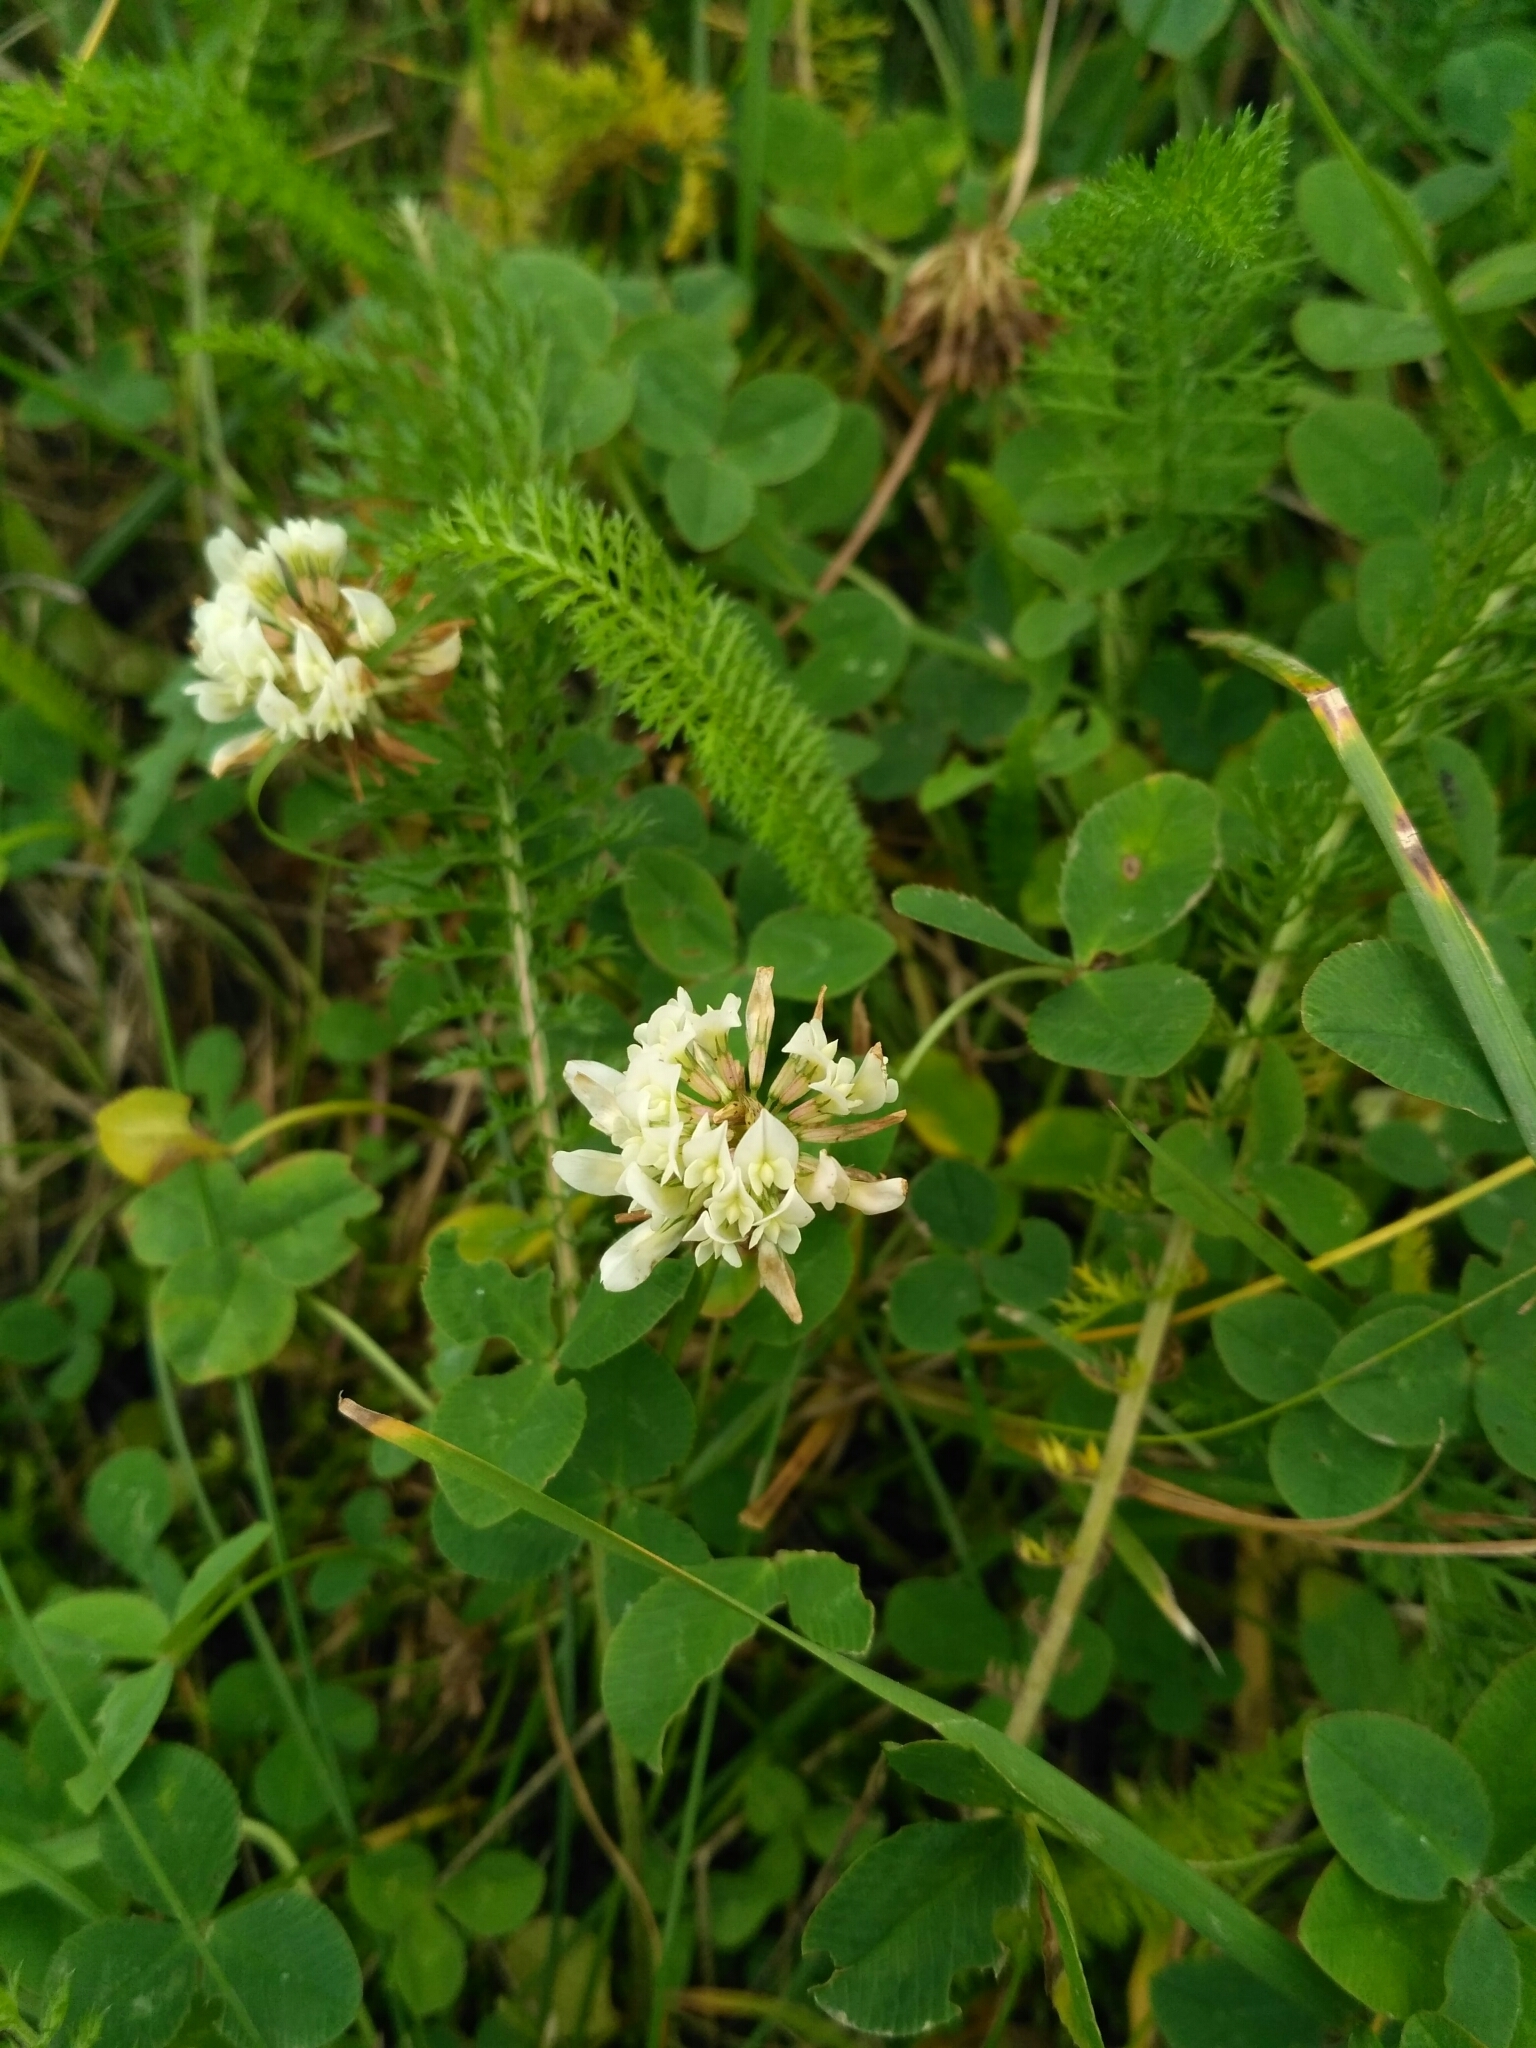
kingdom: Plantae
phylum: Tracheophyta
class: Magnoliopsida
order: Fabales
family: Fabaceae
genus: Trifolium
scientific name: Trifolium repens
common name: White clover
